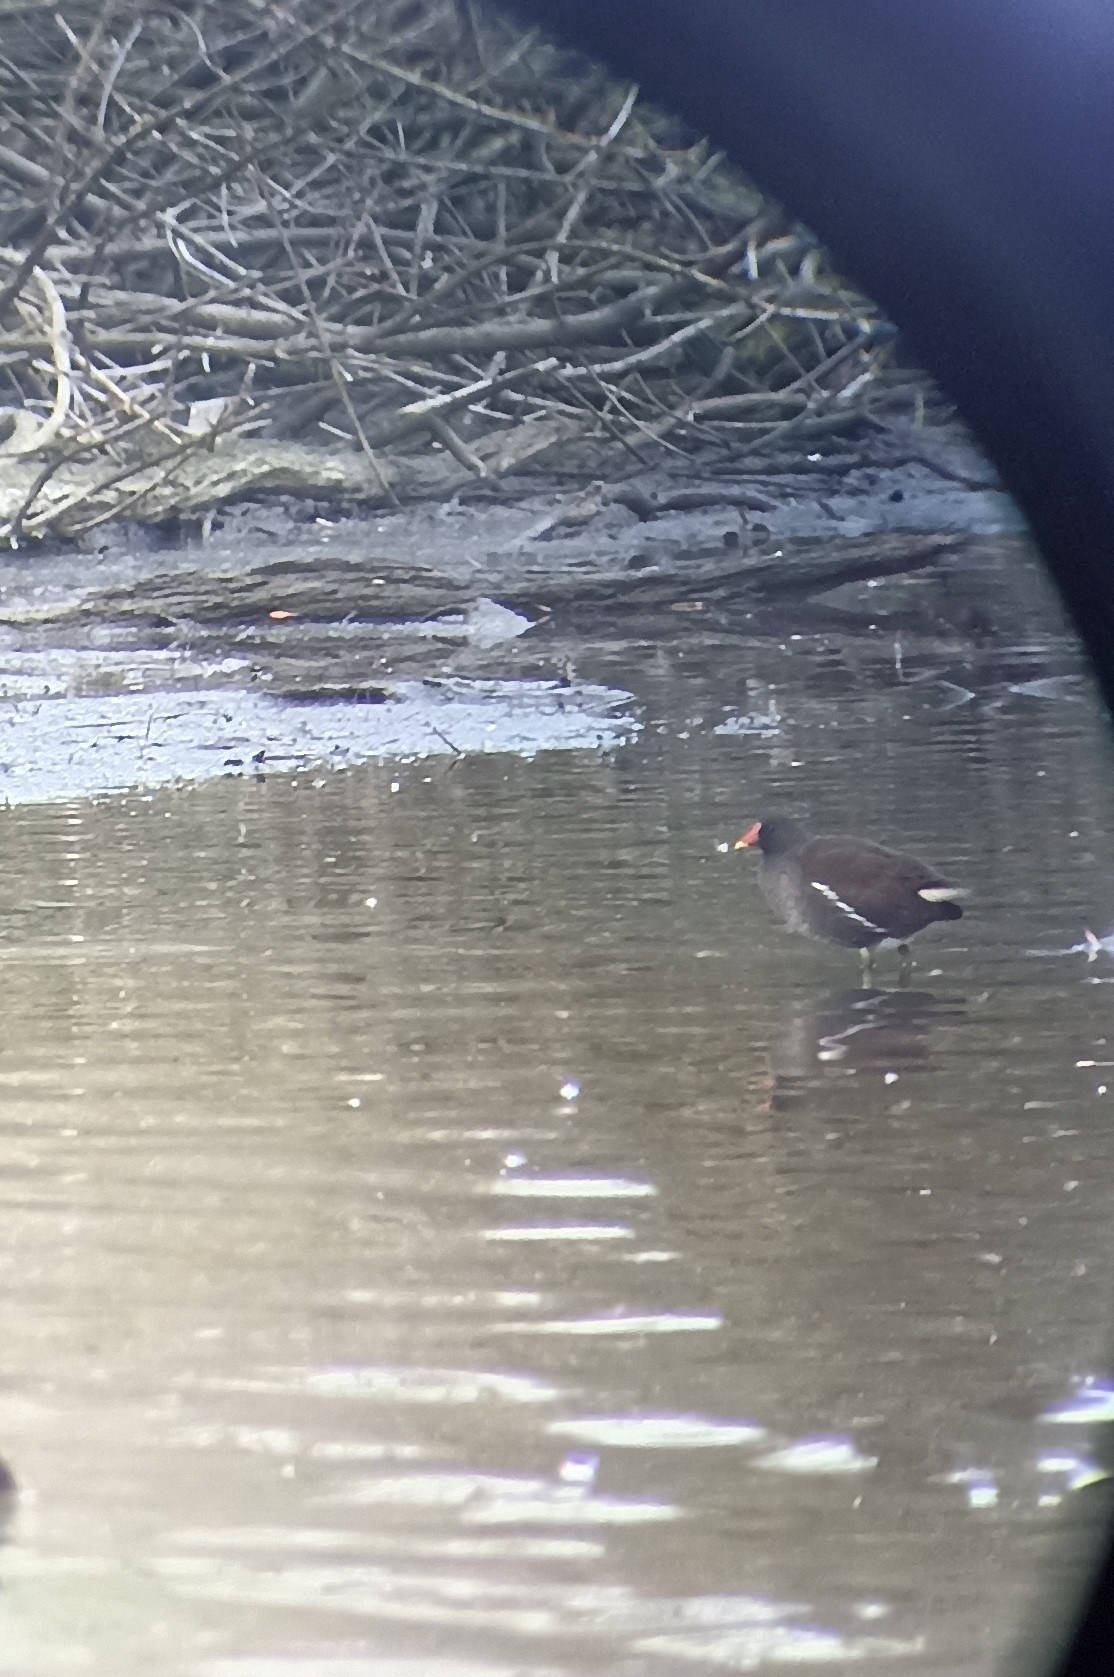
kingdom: Animalia
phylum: Chordata
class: Aves
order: Gruiformes
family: Rallidae
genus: Gallinula
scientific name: Gallinula chloropus
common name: Common moorhen
